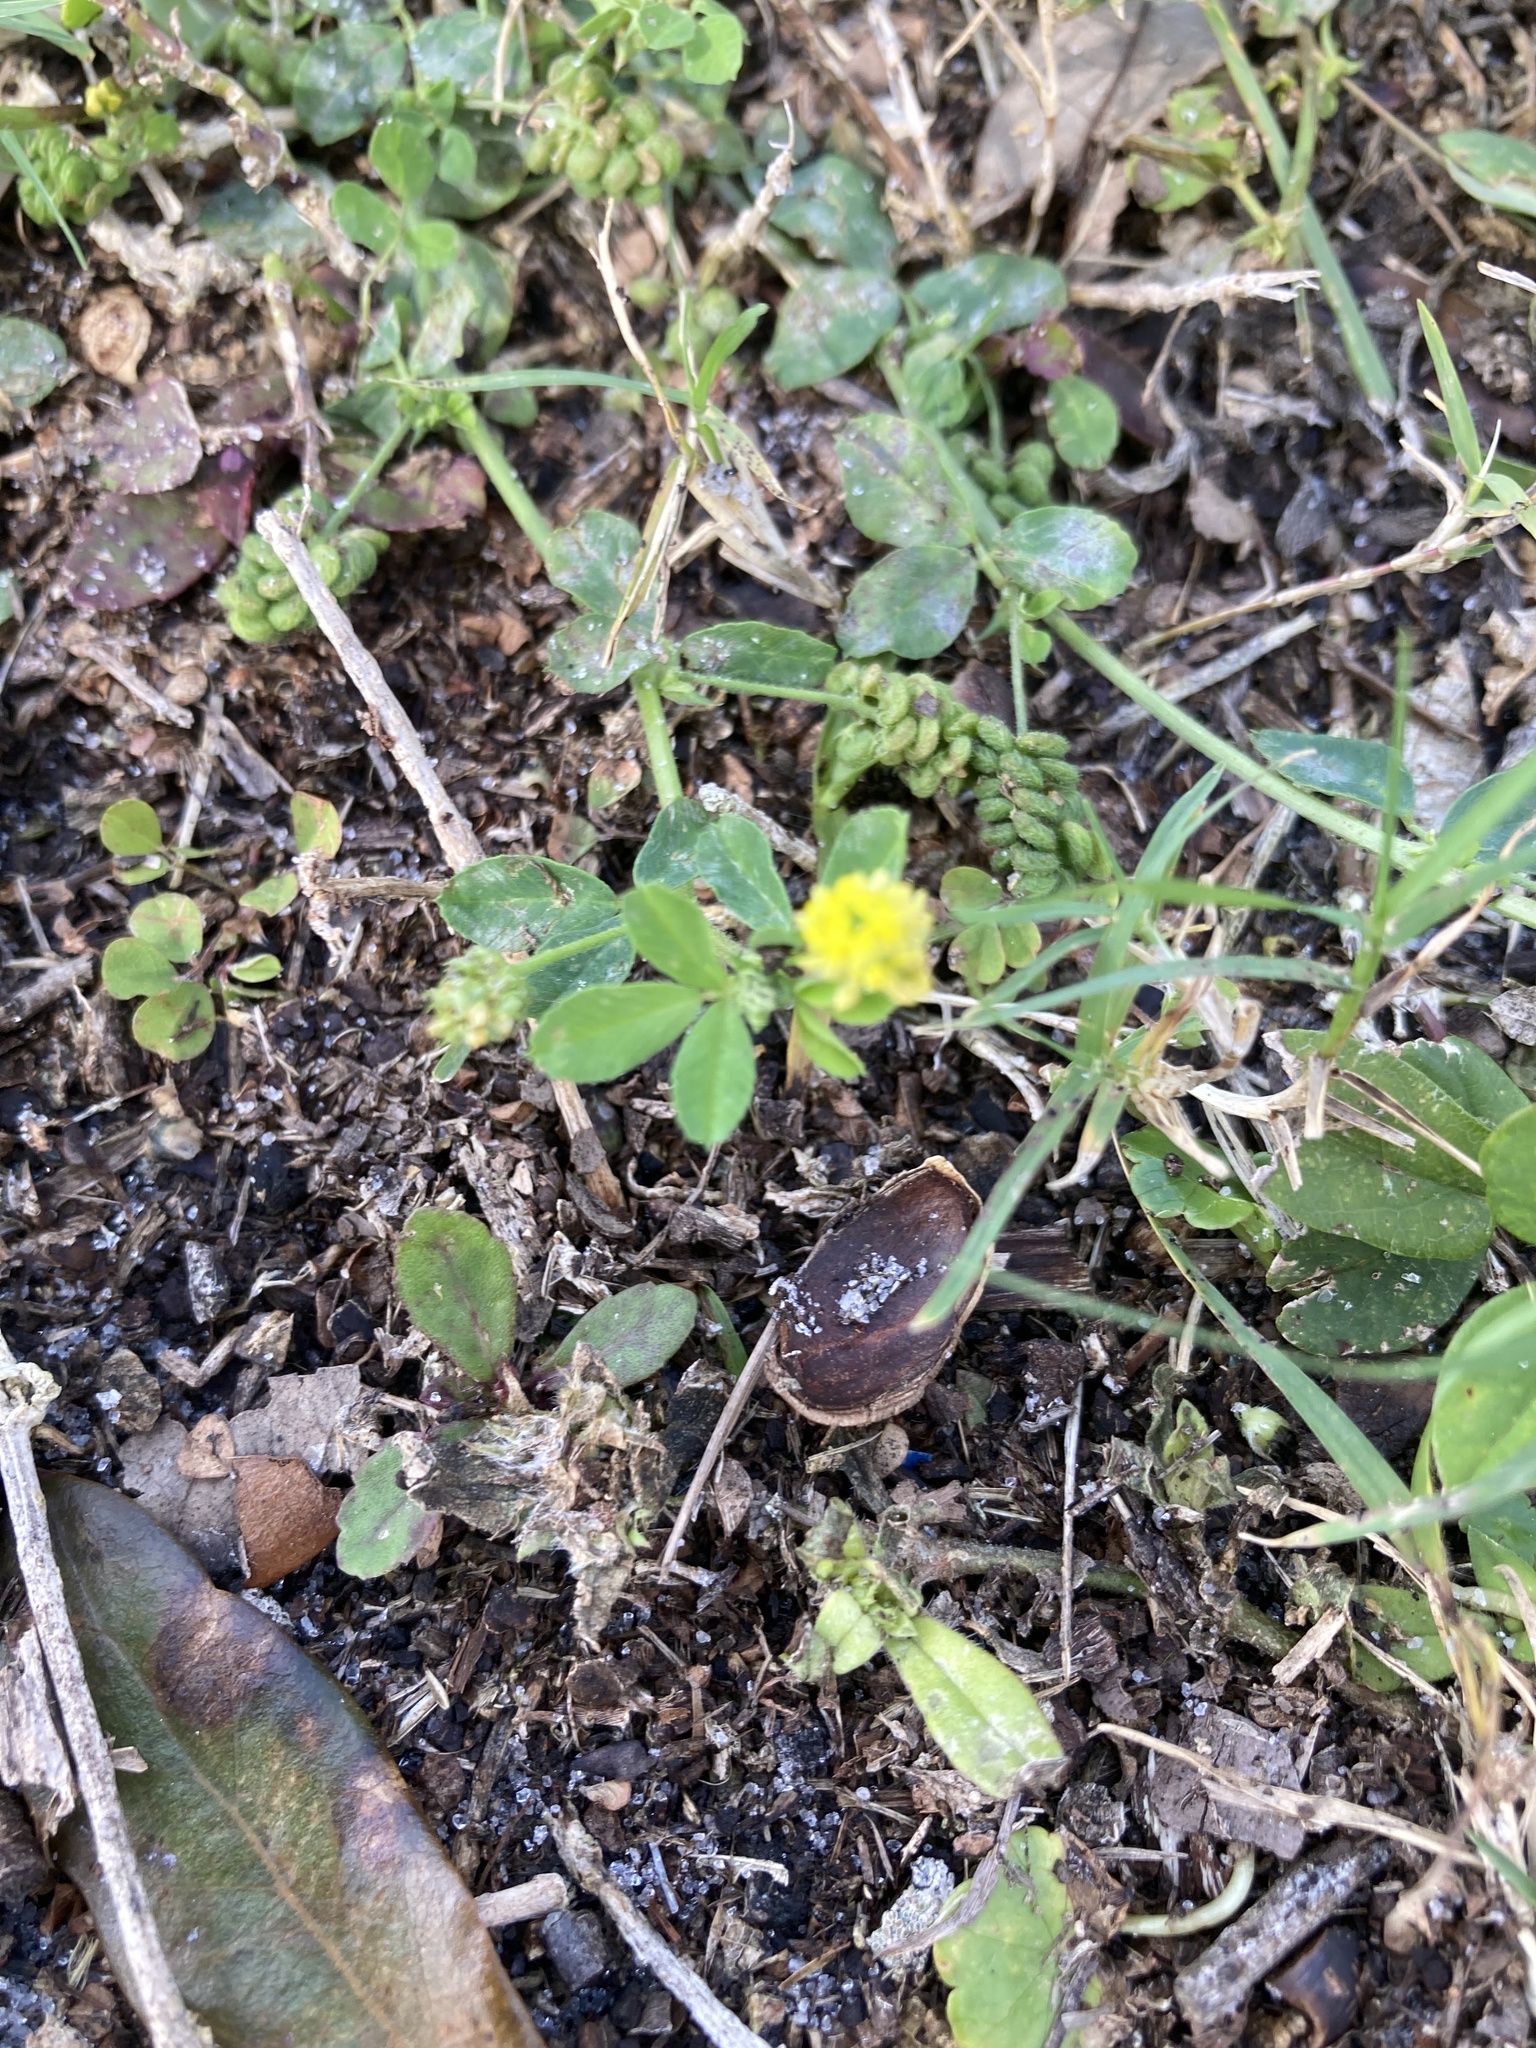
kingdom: Plantae
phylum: Tracheophyta
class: Magnoliopsida
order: Fabales
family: Fabaceae
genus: Medicago
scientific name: Medicago lupulina
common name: Black medick
